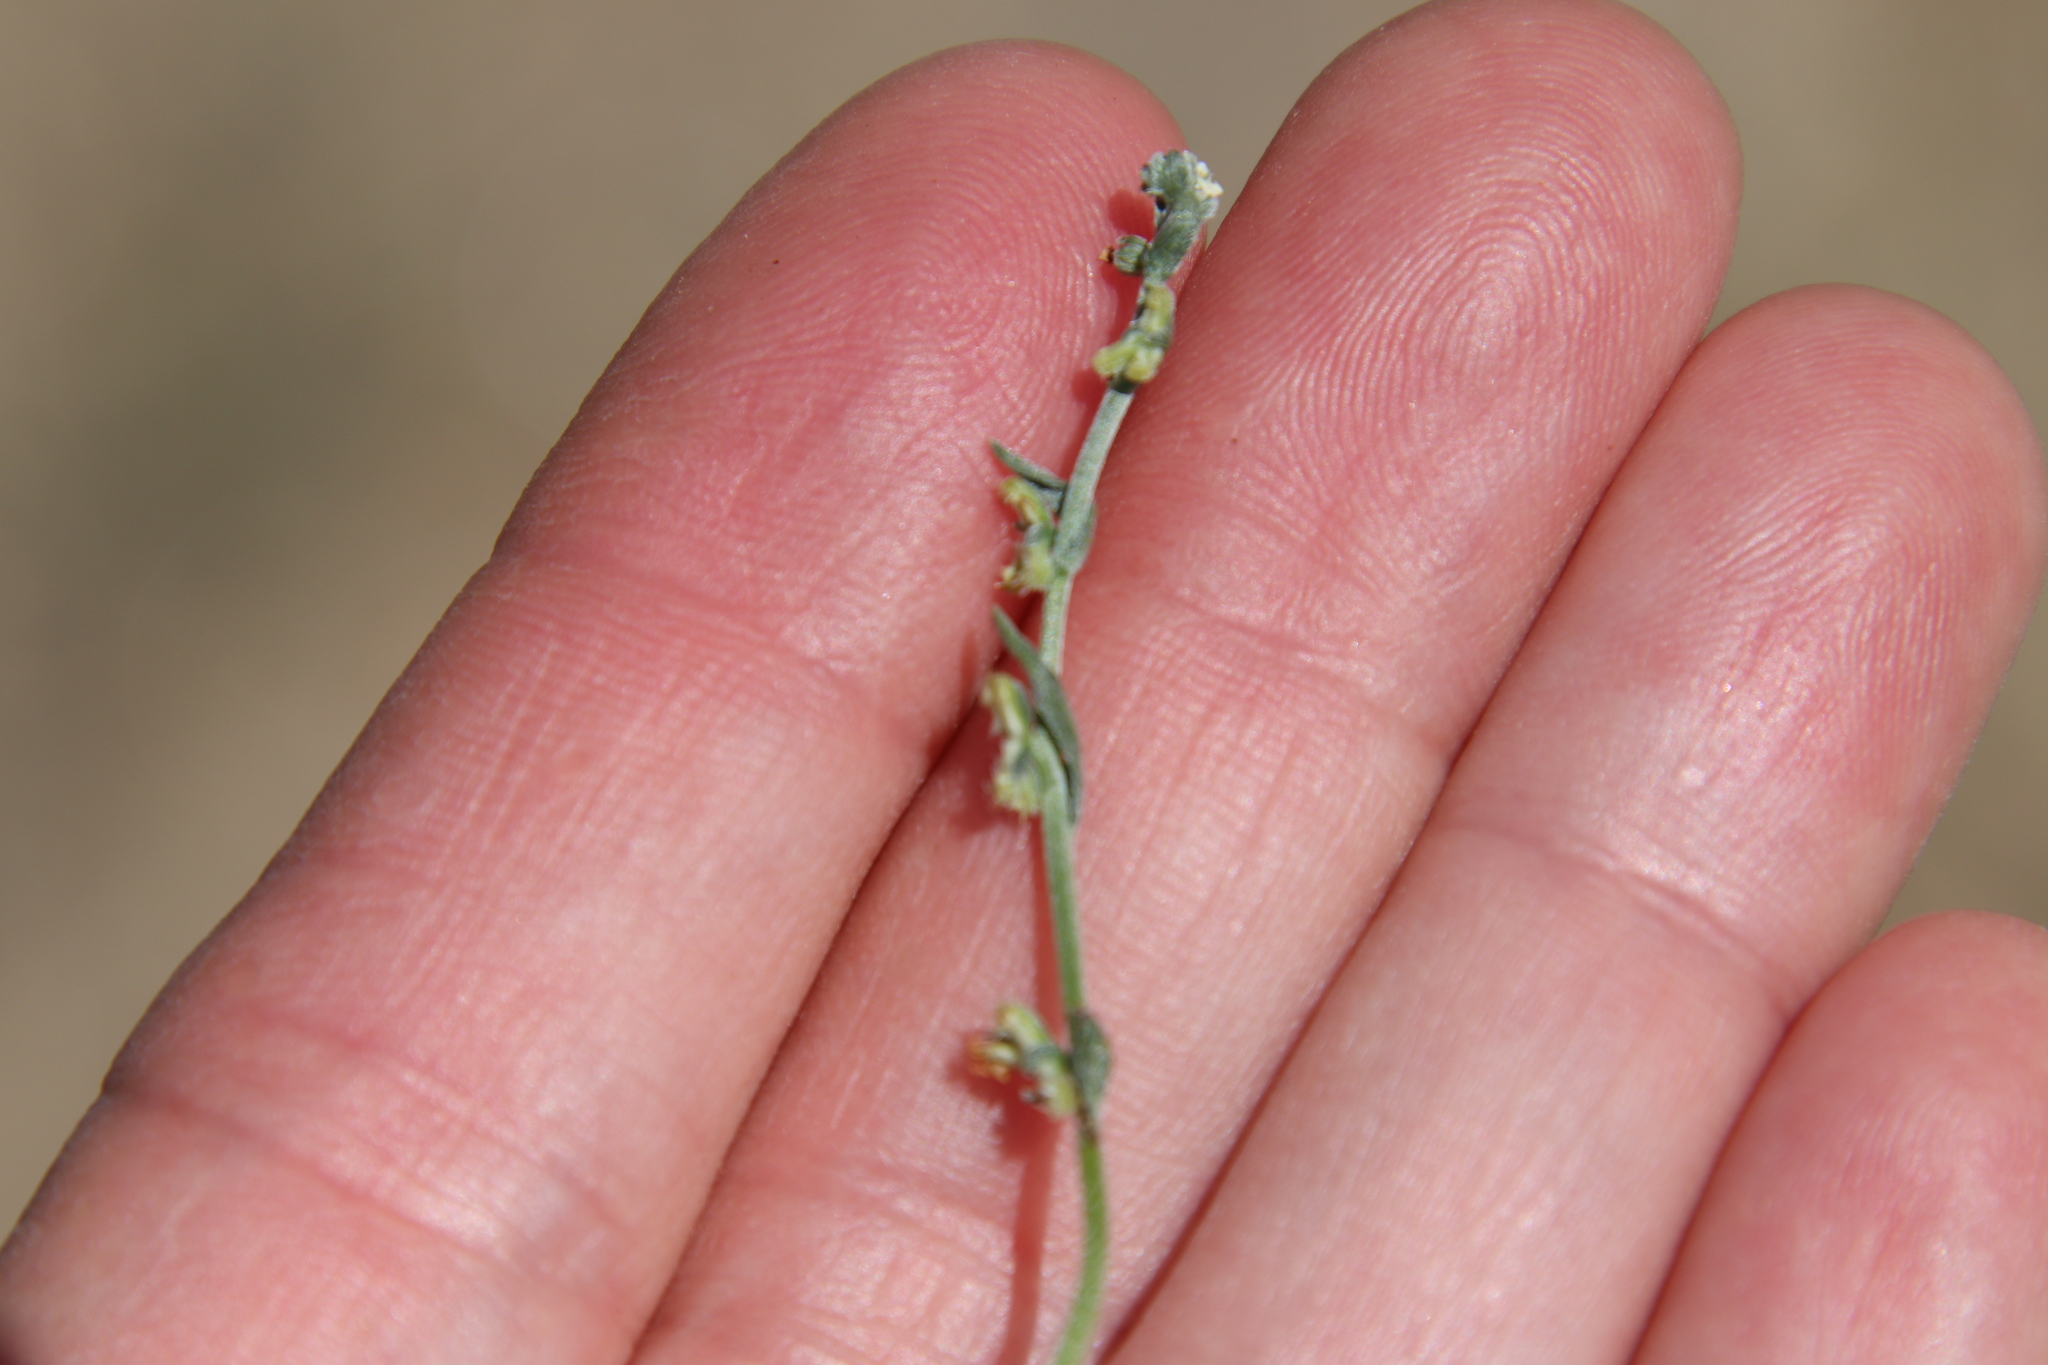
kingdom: Plantae
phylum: Tracheophyta
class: Magnoliopsida
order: Boraginales
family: Boraginaceae
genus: Pectocarya
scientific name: Pectocarya penicillata
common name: Short-leaved combseed
